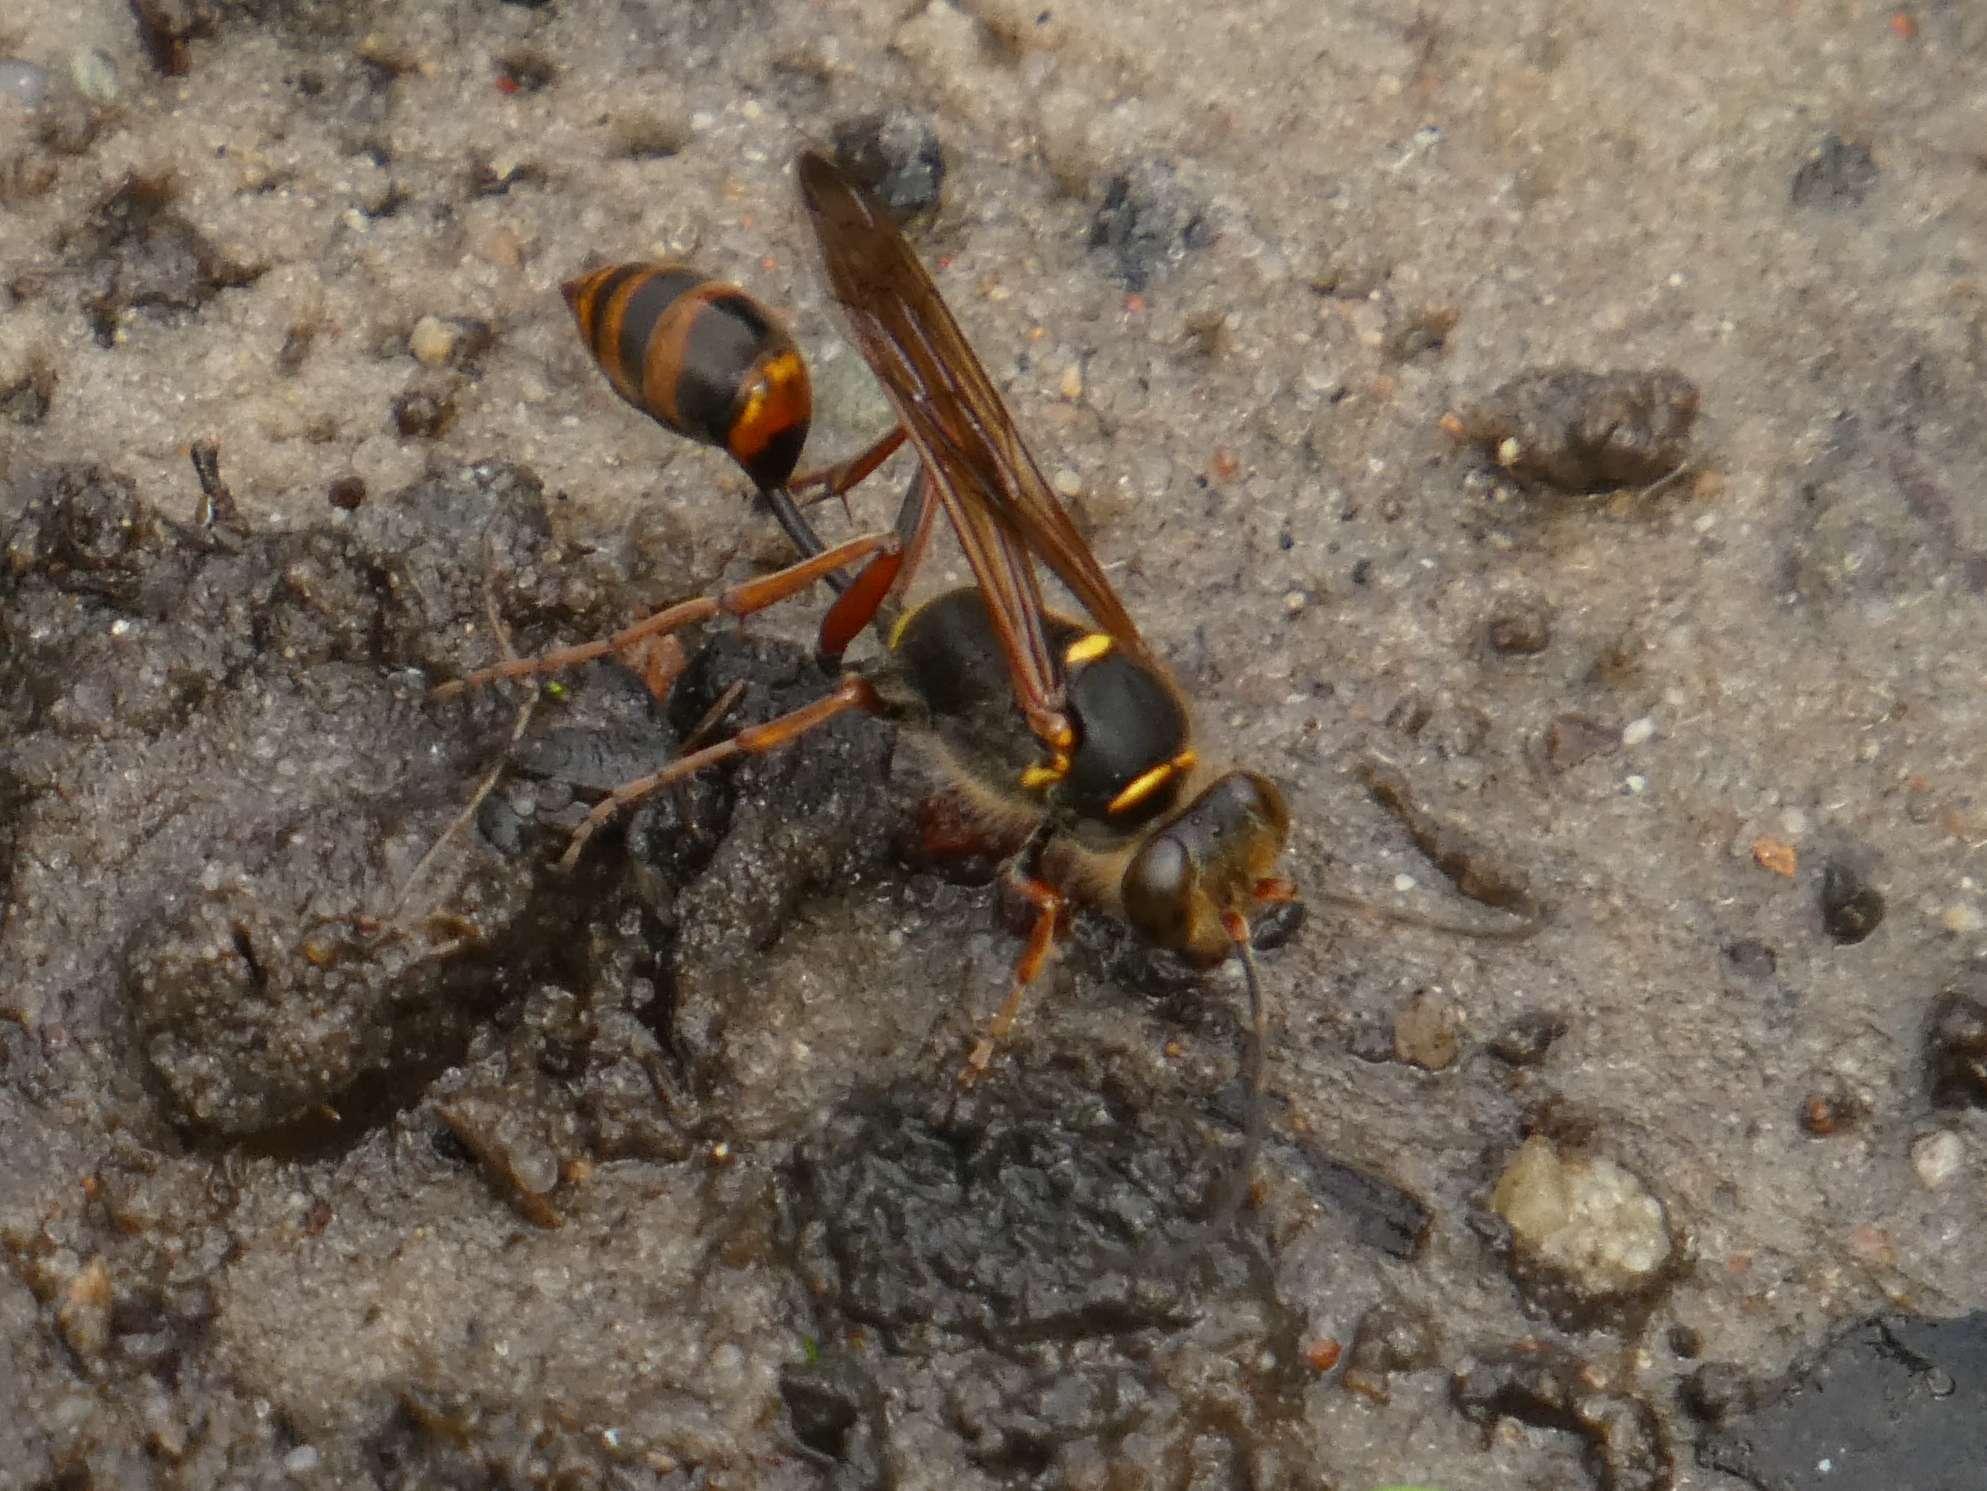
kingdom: Animalia
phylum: Arthropoda
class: Insecta
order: Hymenoptera
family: Sphecidae
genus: Sceliphron
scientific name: Sceliphron curvatum
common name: Pèlopèe
